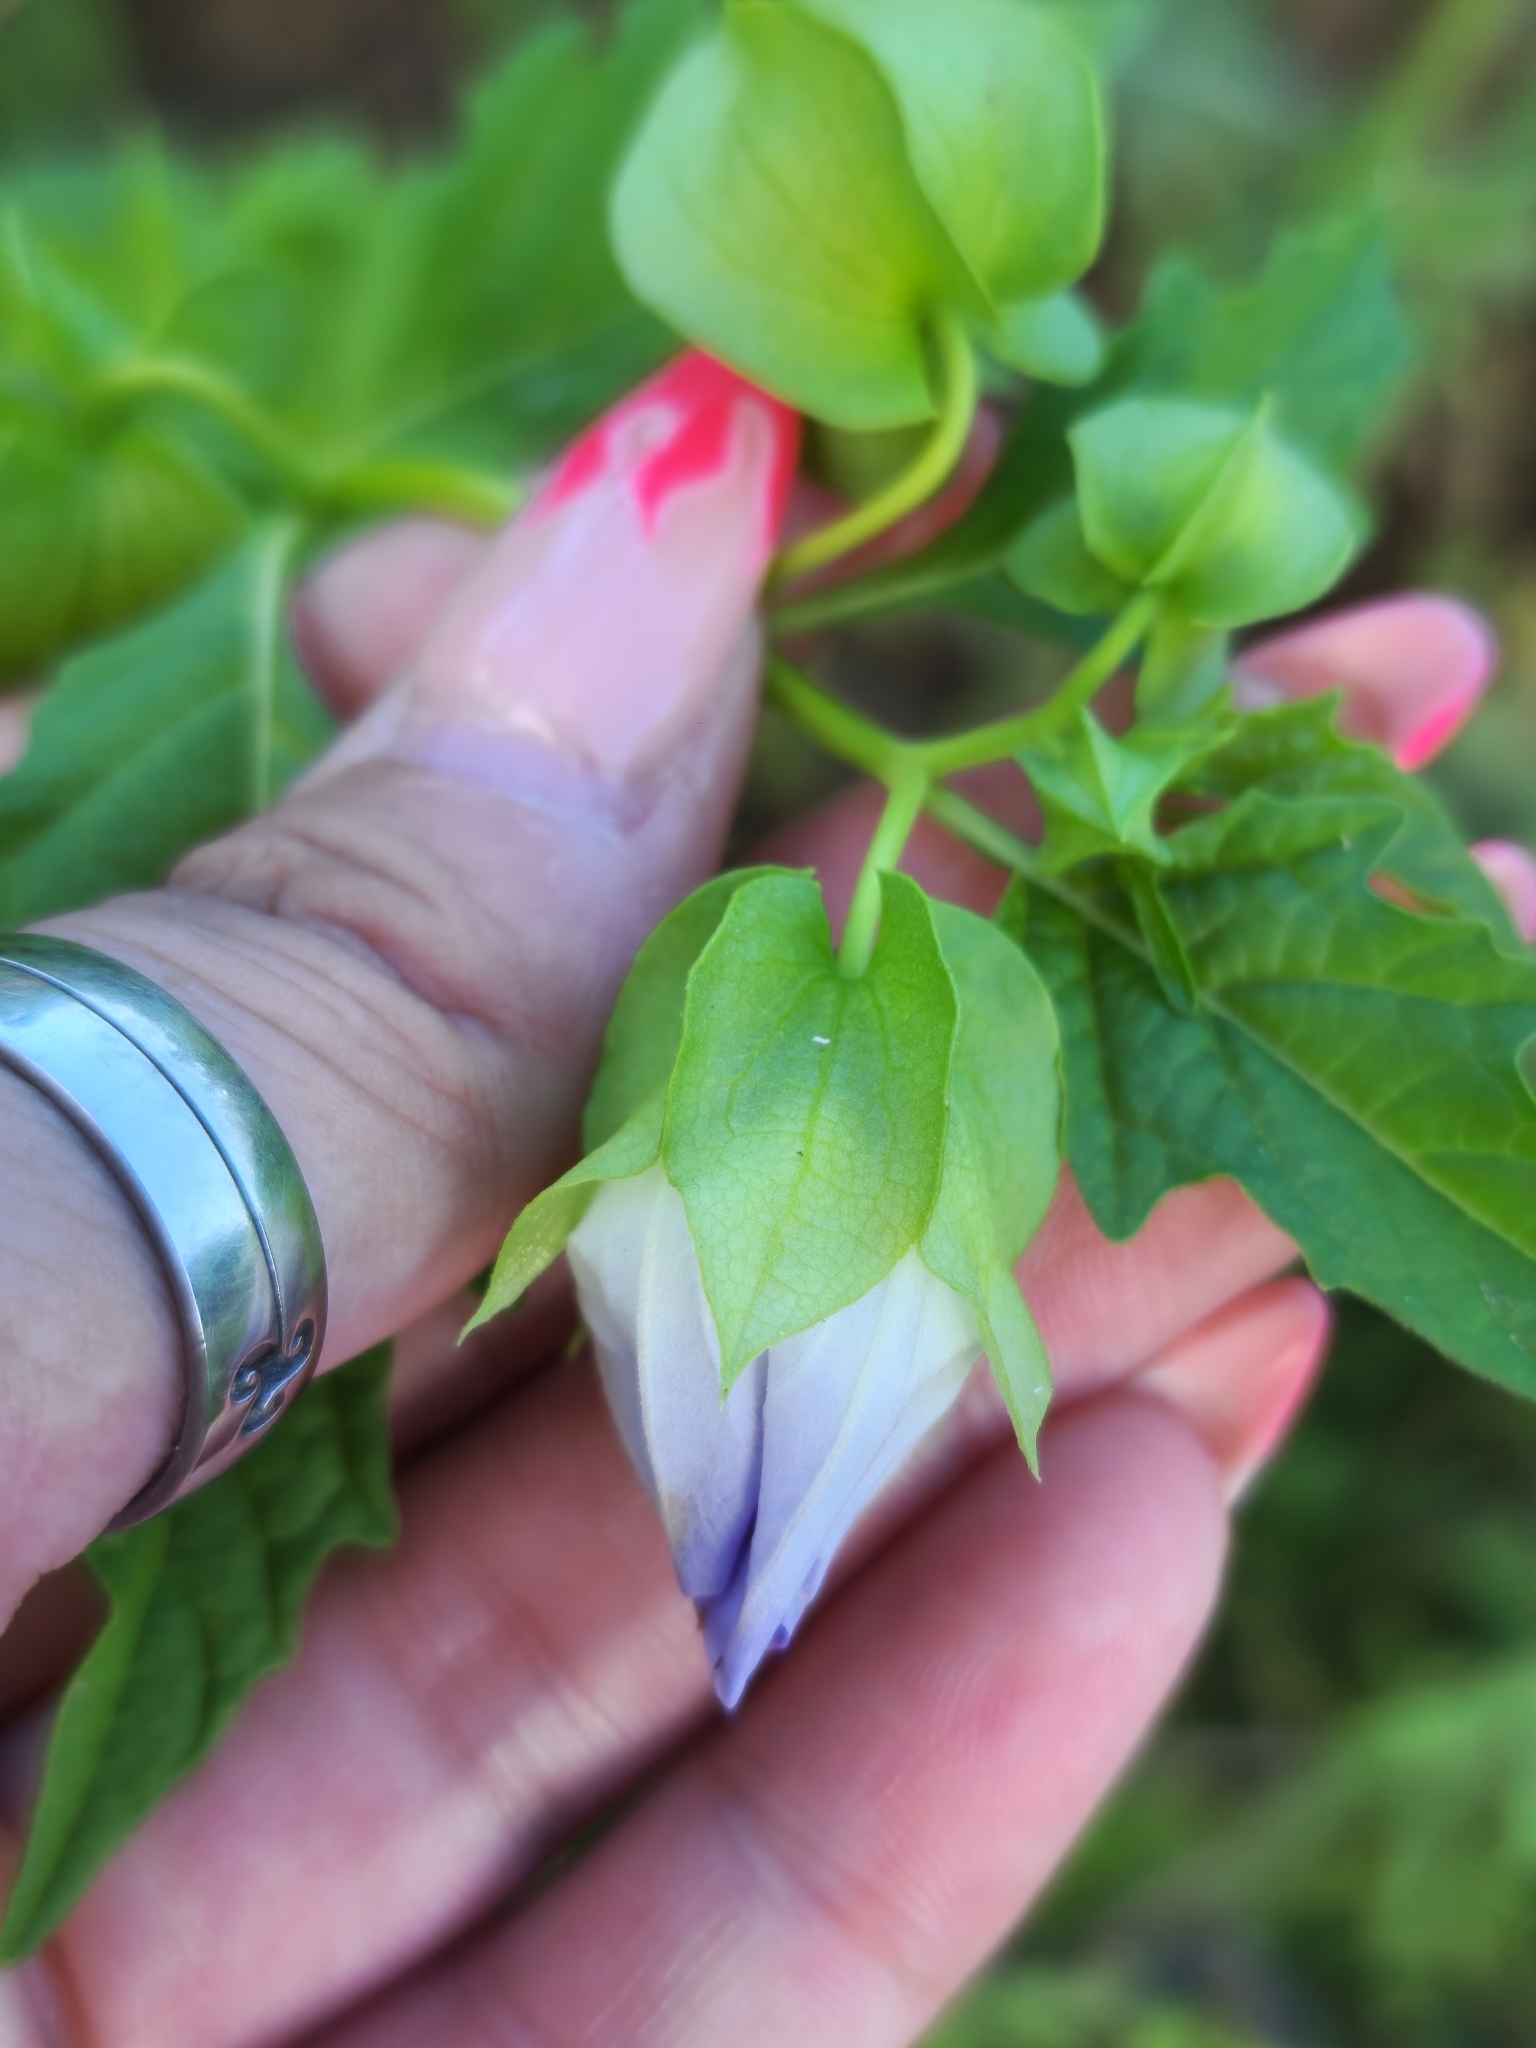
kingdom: Plantae
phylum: Tracheophyta
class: Magnoliopsida
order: Solanales
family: Solanaceae
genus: Nicandra
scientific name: Nicandra physalodes
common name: Apple-of-peru
